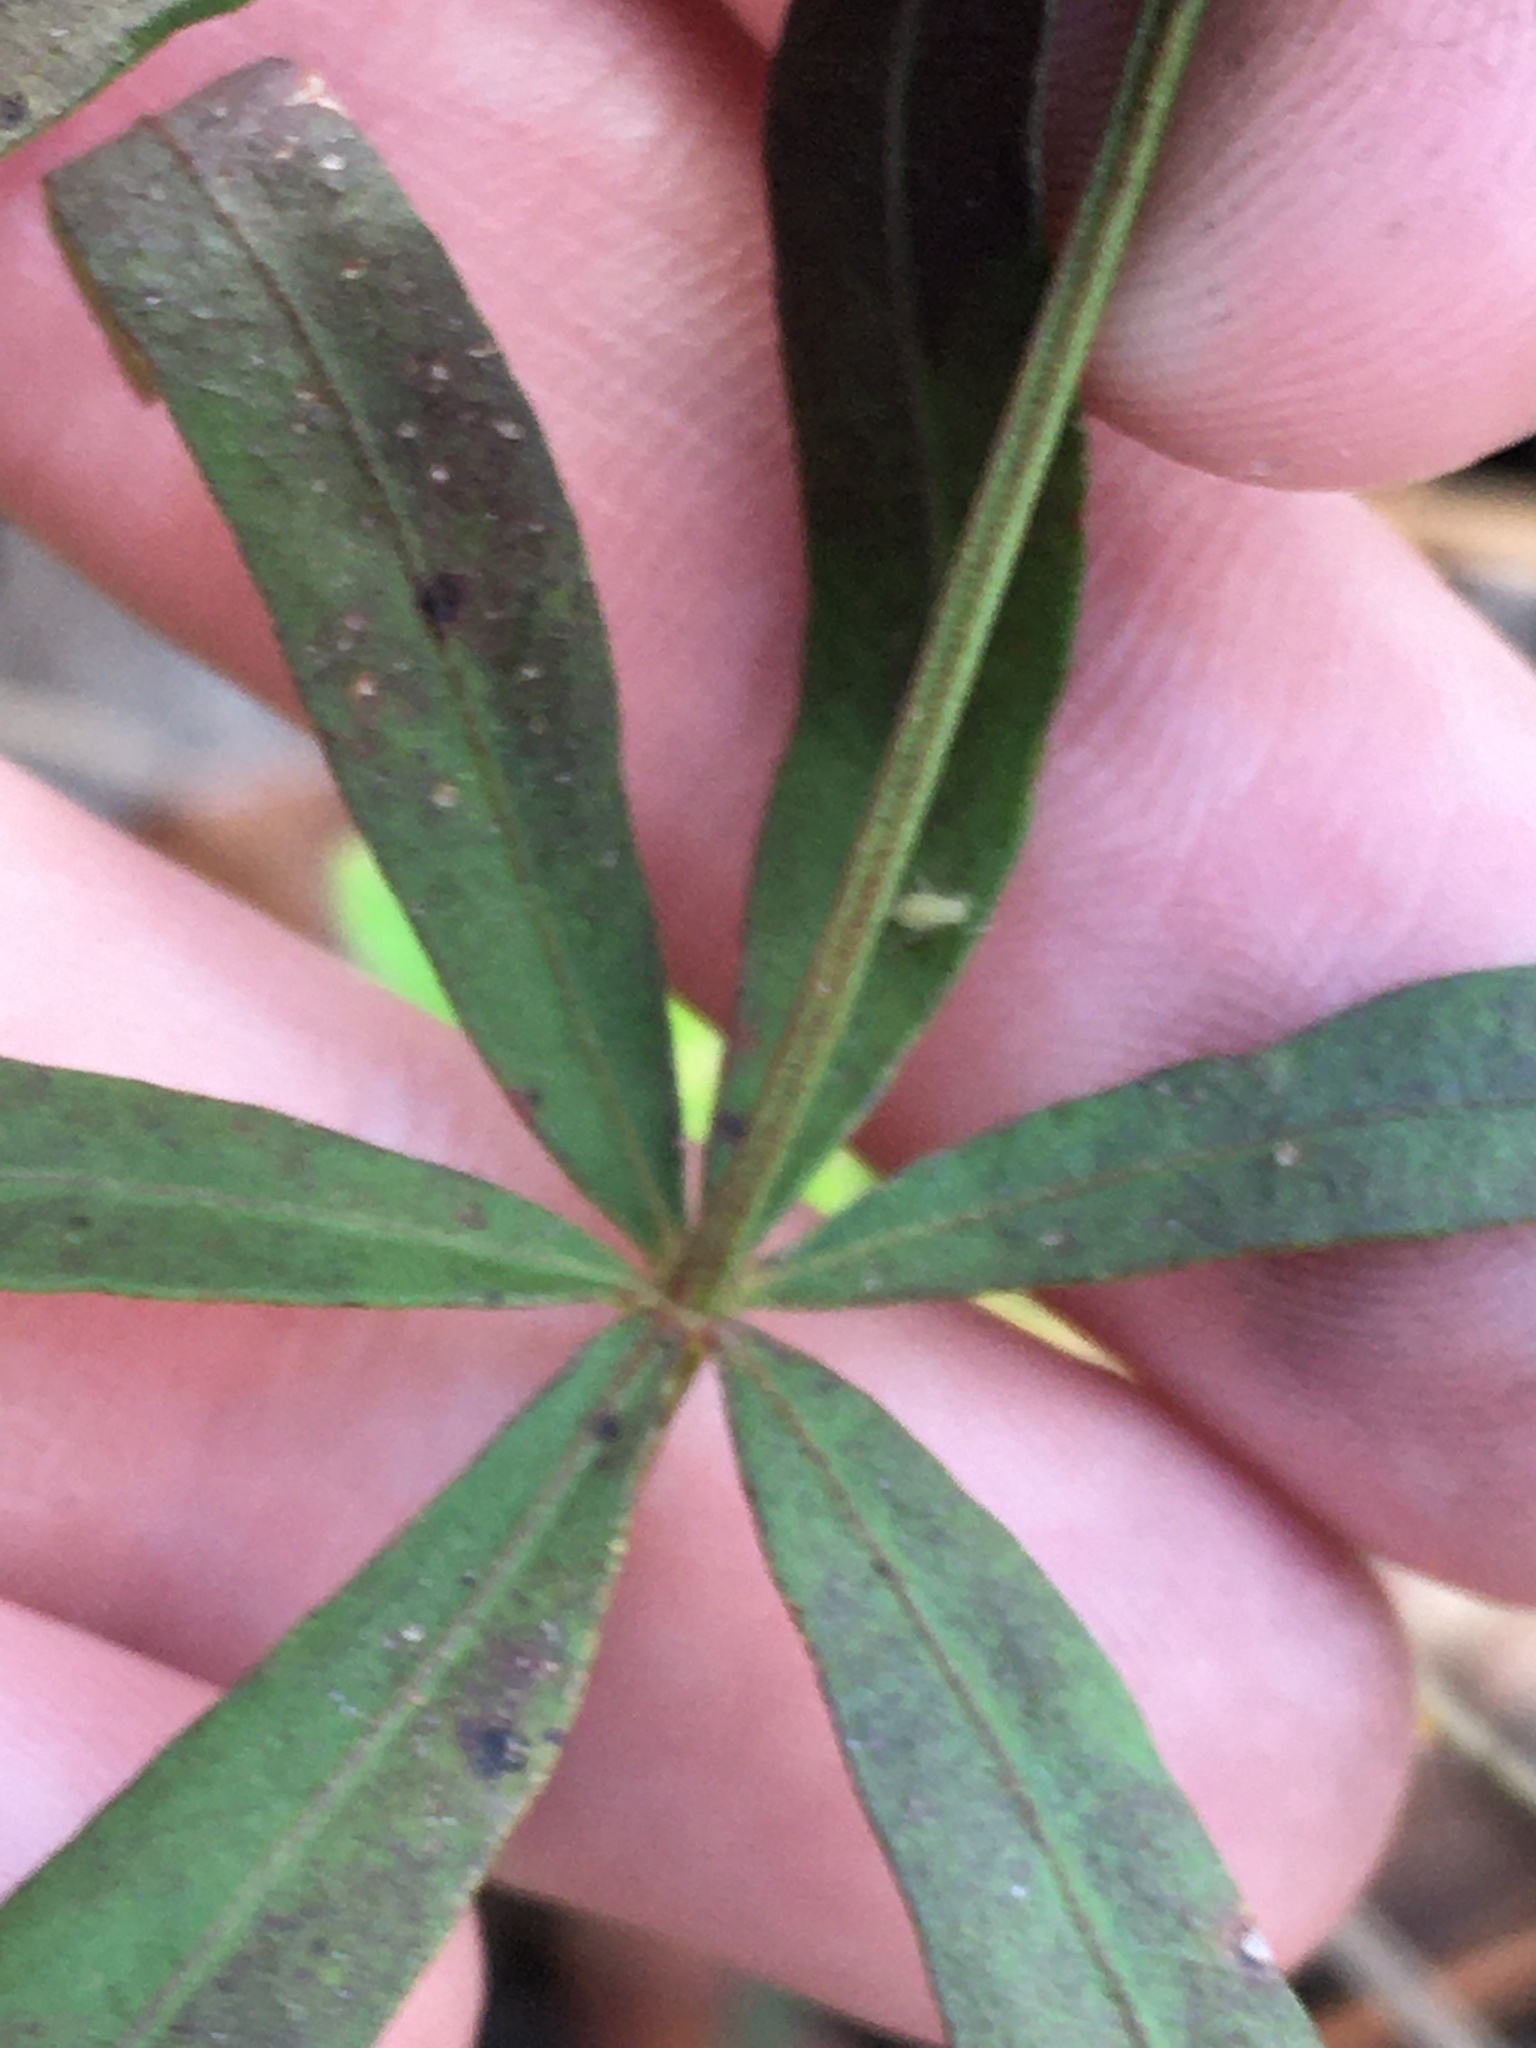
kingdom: Plantae
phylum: Tracheophyta
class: Magnoliopsida
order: Asterales
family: Asteraceae
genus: Coreopsis
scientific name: Coreopsis major
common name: Forest tickseed
